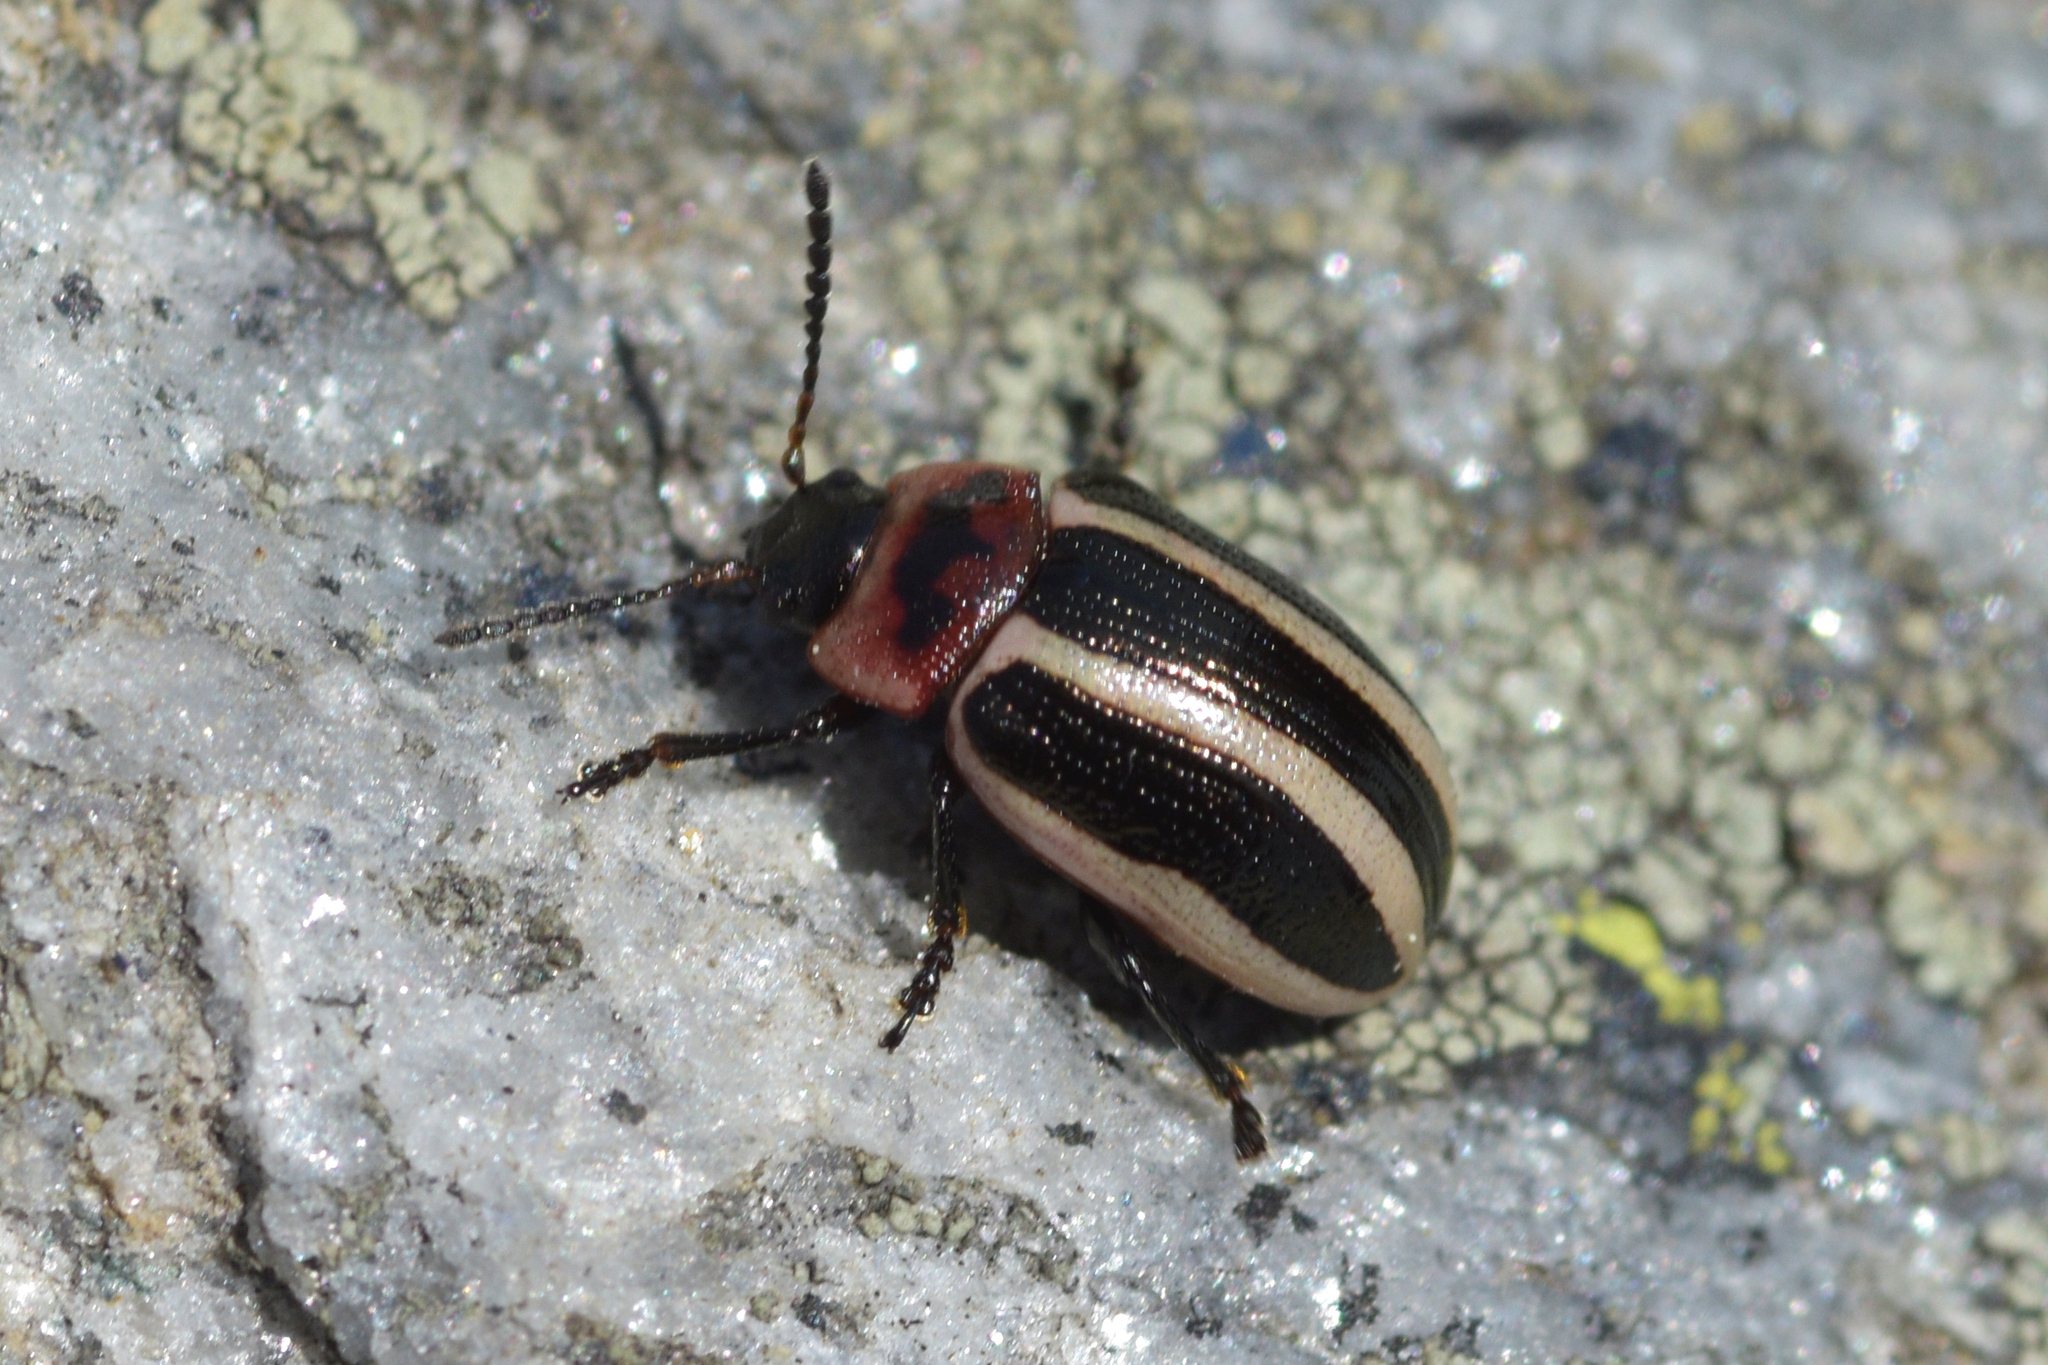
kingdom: Animalia
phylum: Arthropoda
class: Insecta
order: Coleoptera
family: Chrysomelidae
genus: Calligrapha
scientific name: Calligrapha californica
